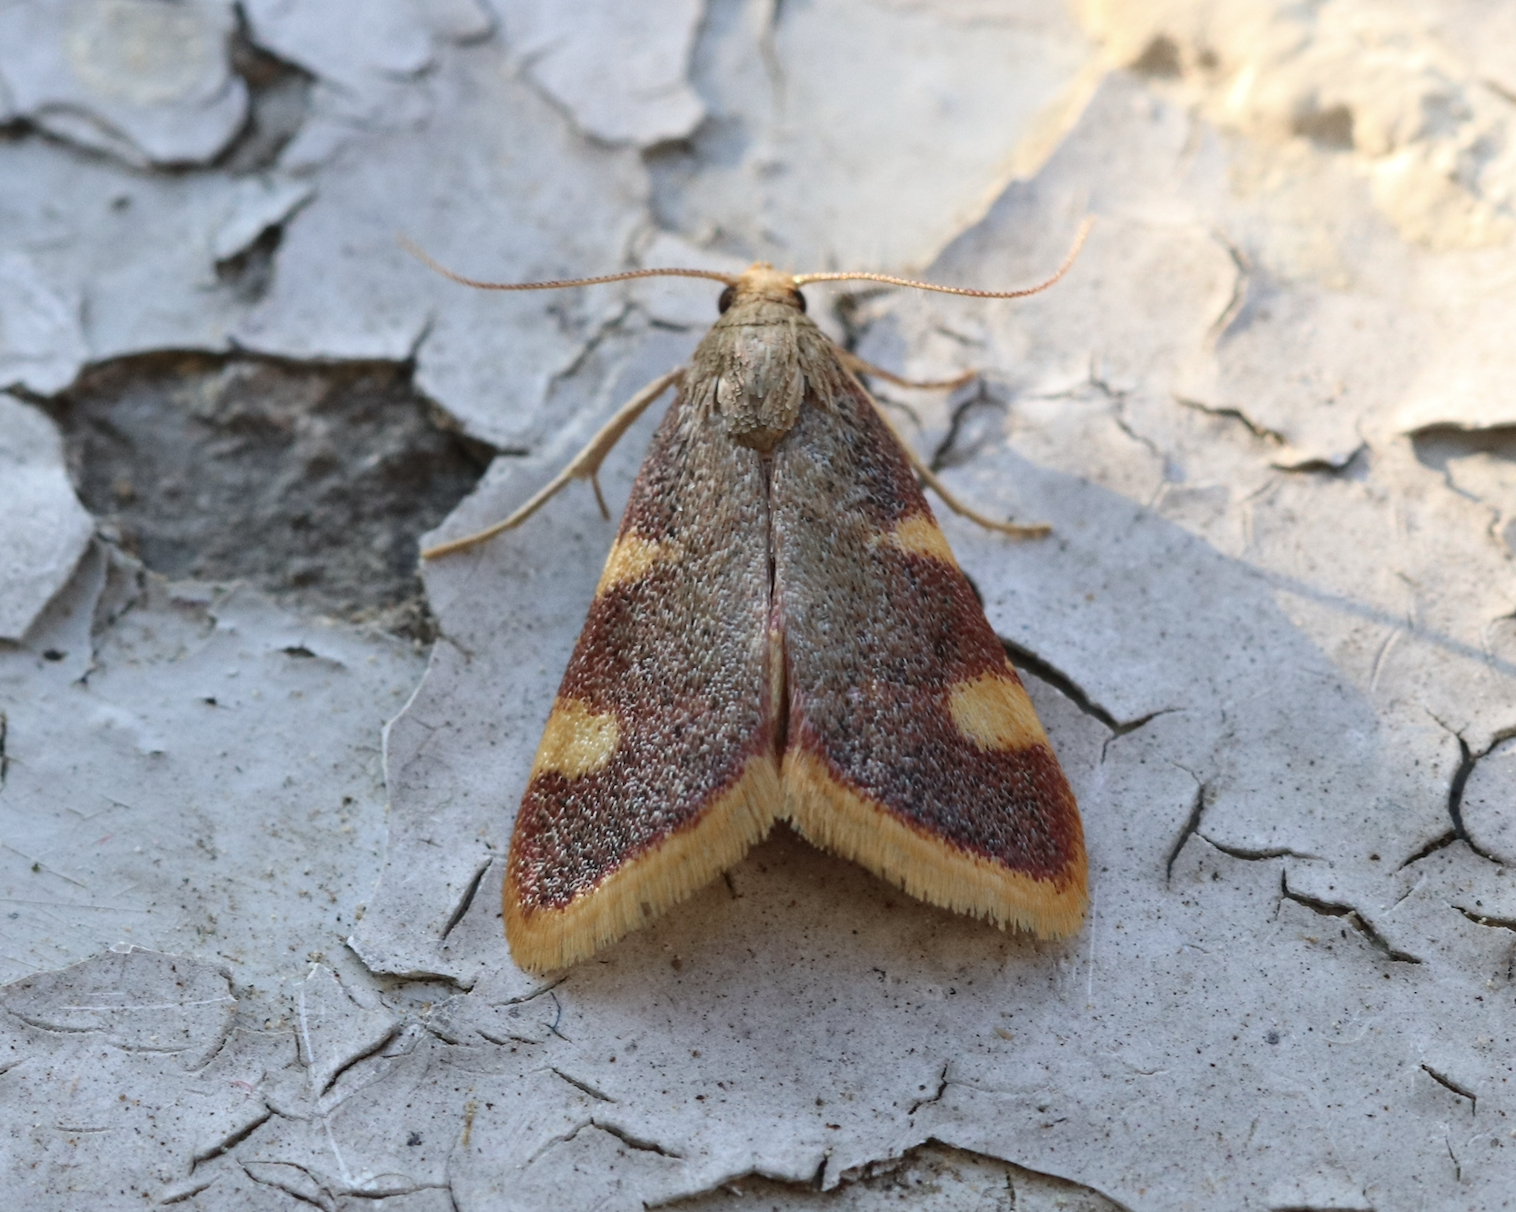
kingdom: Animalia
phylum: Arthropoda
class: Insecta
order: Lepidoptera
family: Pyralidae
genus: Hypsopygia
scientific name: Hypsopygia costalis
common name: Gold triangle
